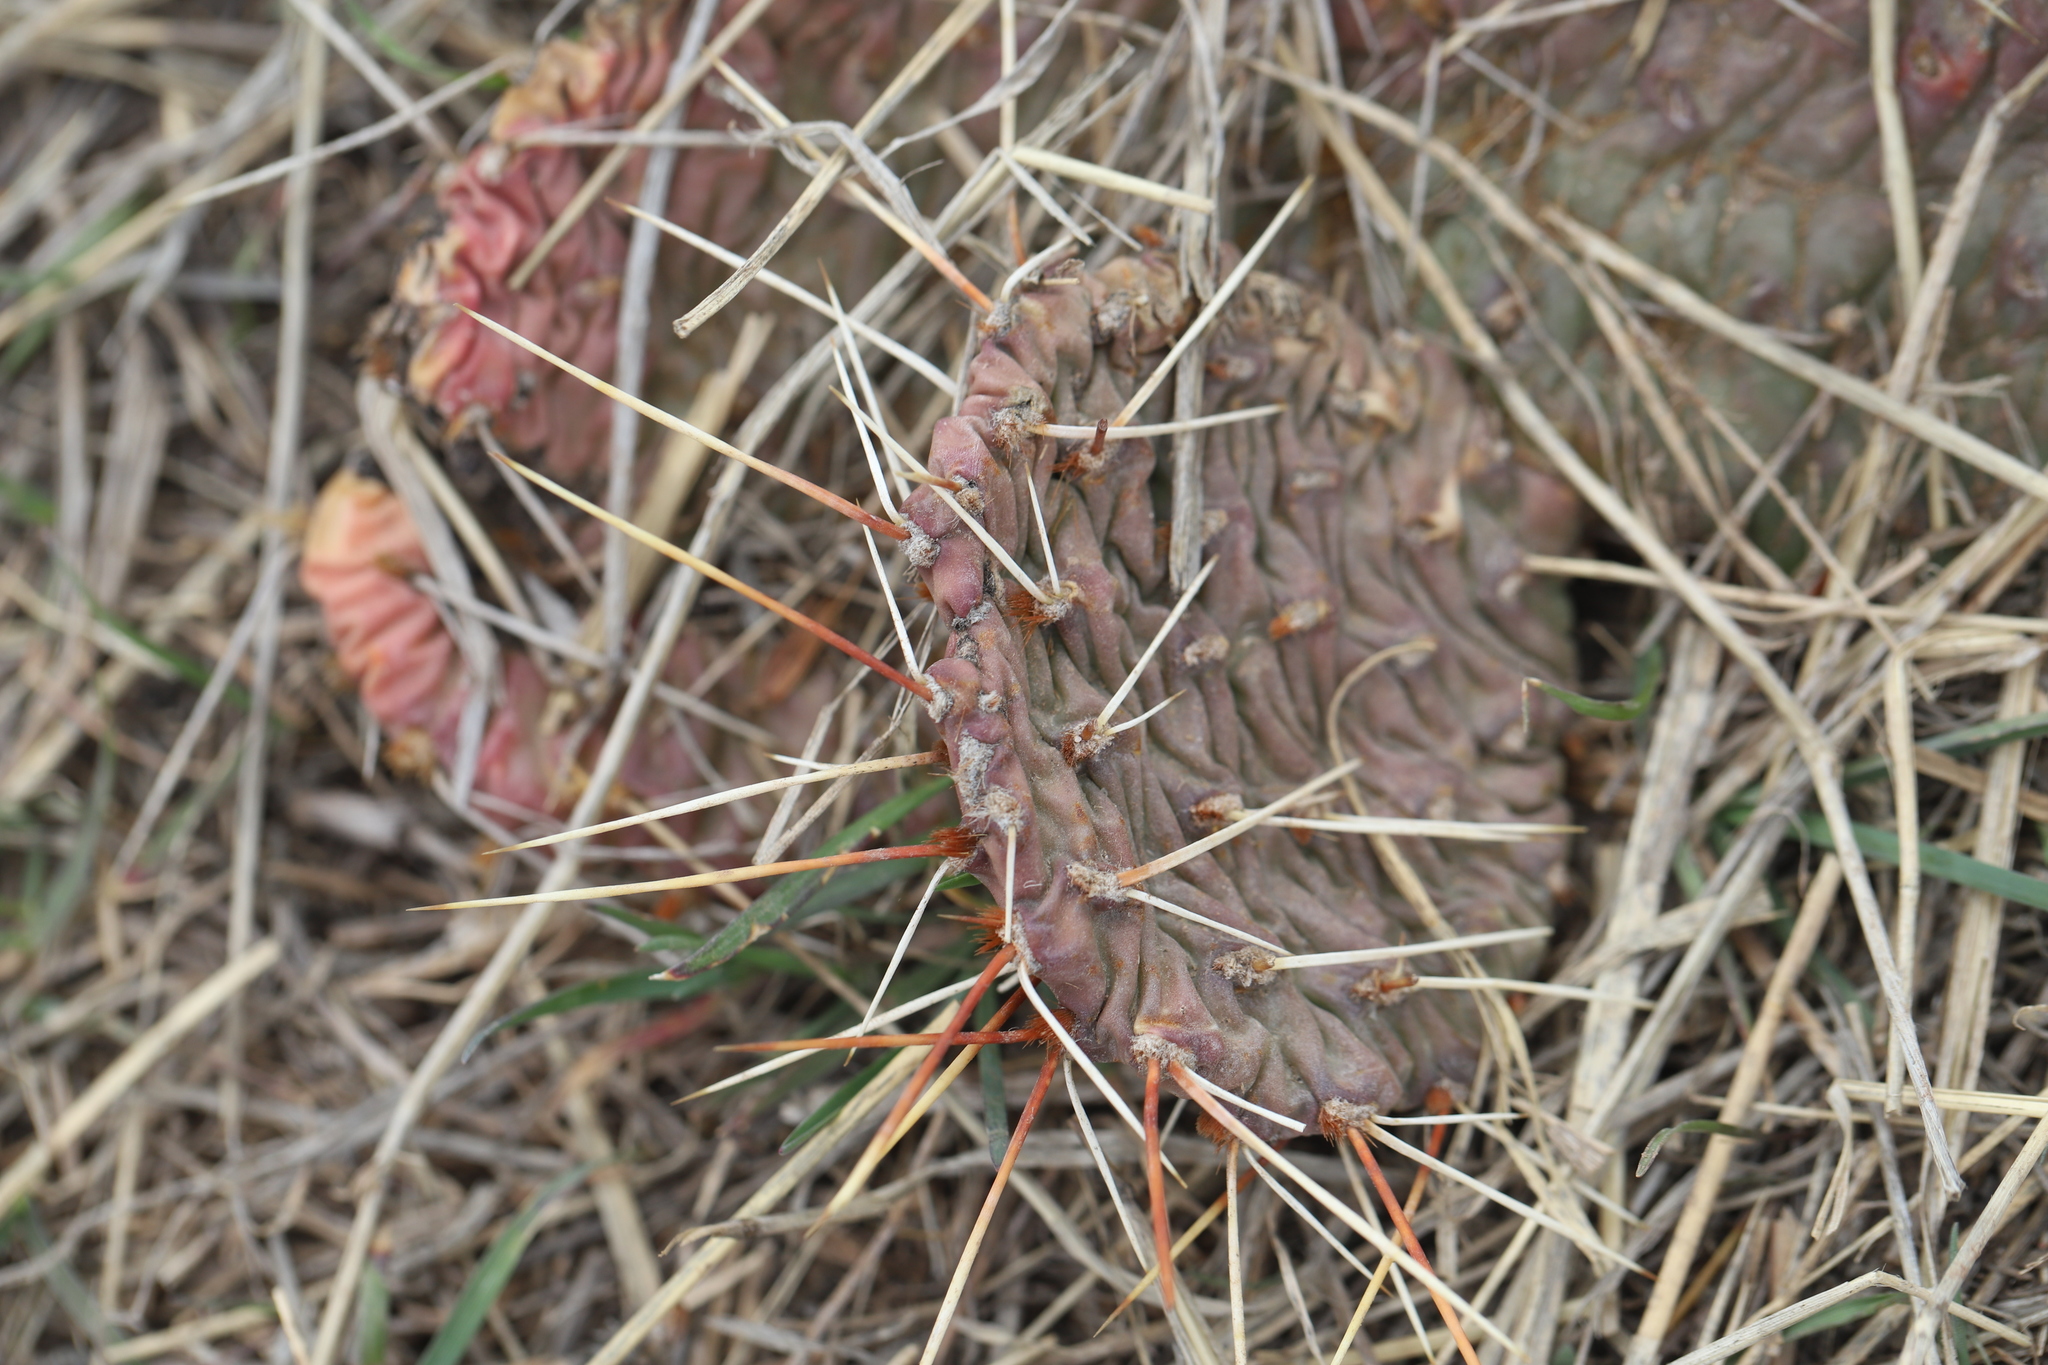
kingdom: Plantae
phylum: Tracheophyta
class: Magnoliopsida
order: Caryophyllales
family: Cactaceae
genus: Opuntia
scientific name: Opuntia macrorhiza
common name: Grassland pricklypear
